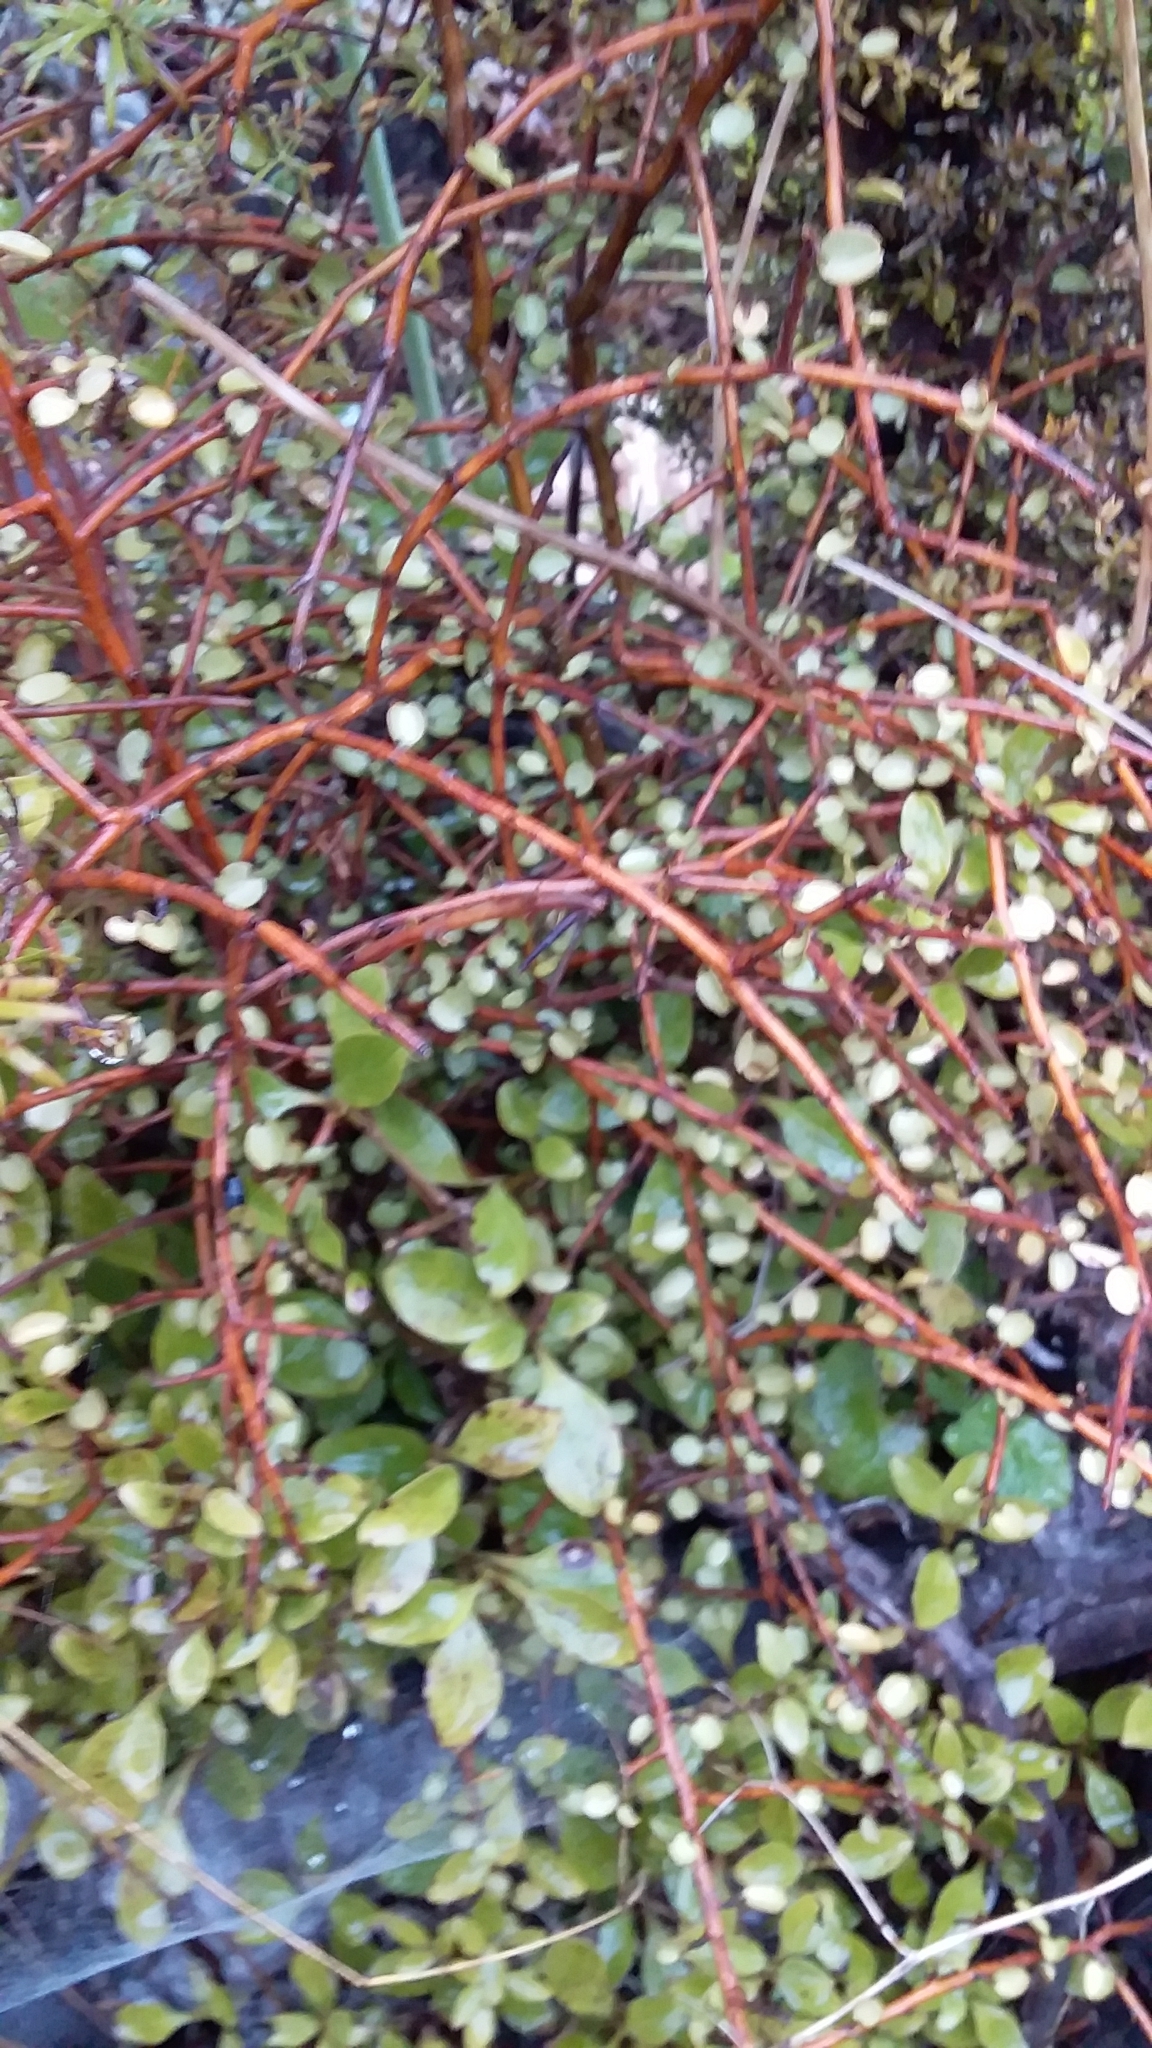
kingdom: Plantae
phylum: Tracheophyta
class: Magnoliopsida
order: Ericales
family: Primulaceae
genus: Myrsine
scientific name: Myrsine divaricata
